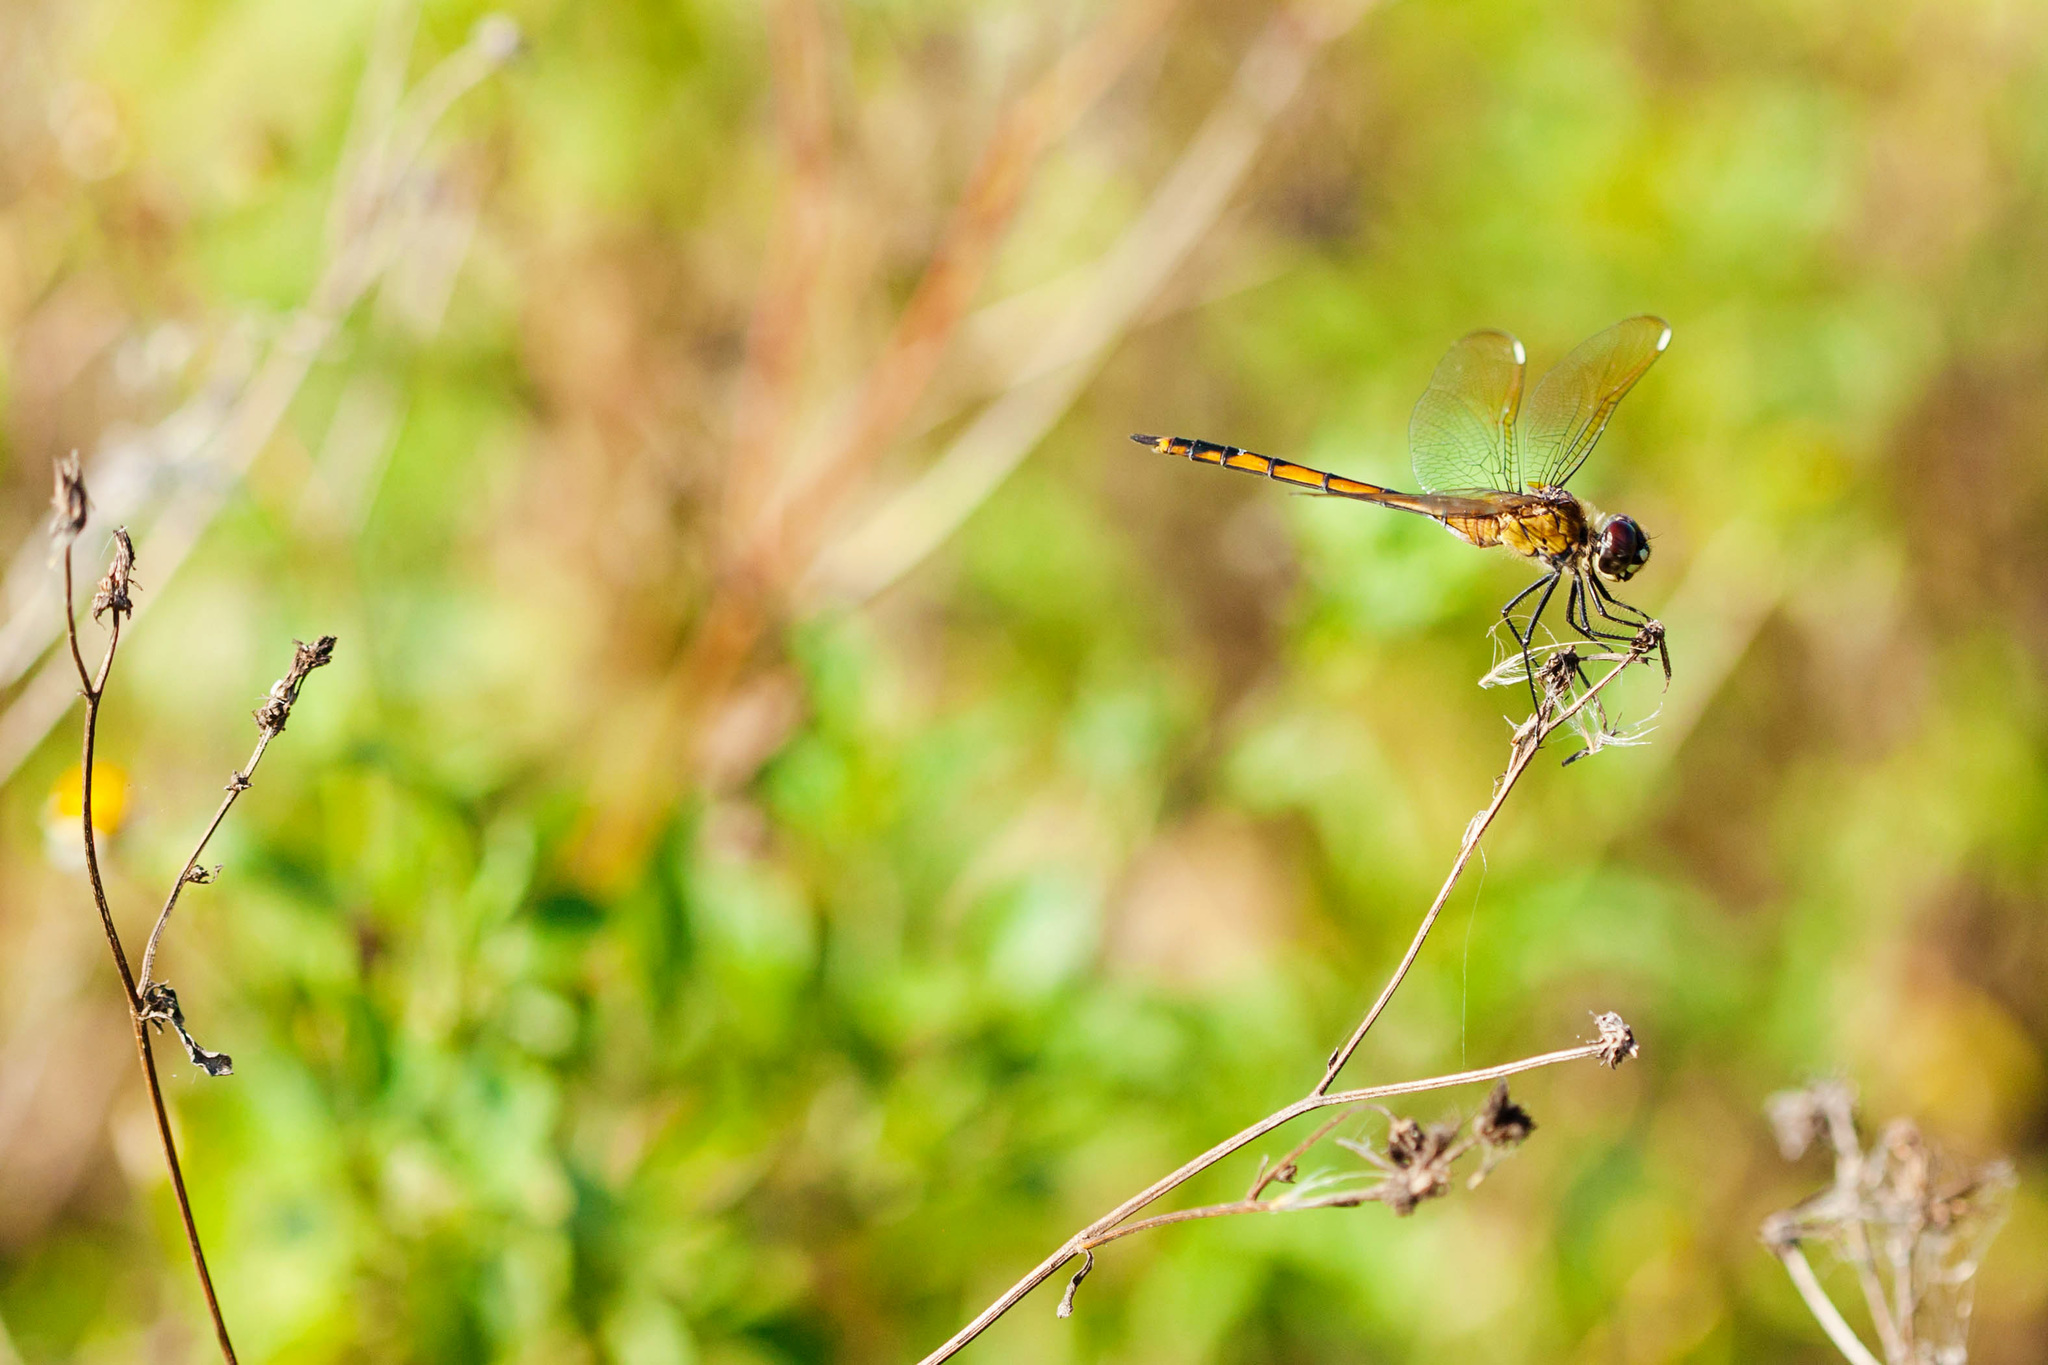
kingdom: Animalia
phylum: Arthropoda
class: Insecta
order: Odonata
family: Libellulidae
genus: Brachymesia
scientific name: Brachymesia gravida
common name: Four-spotted pennant
